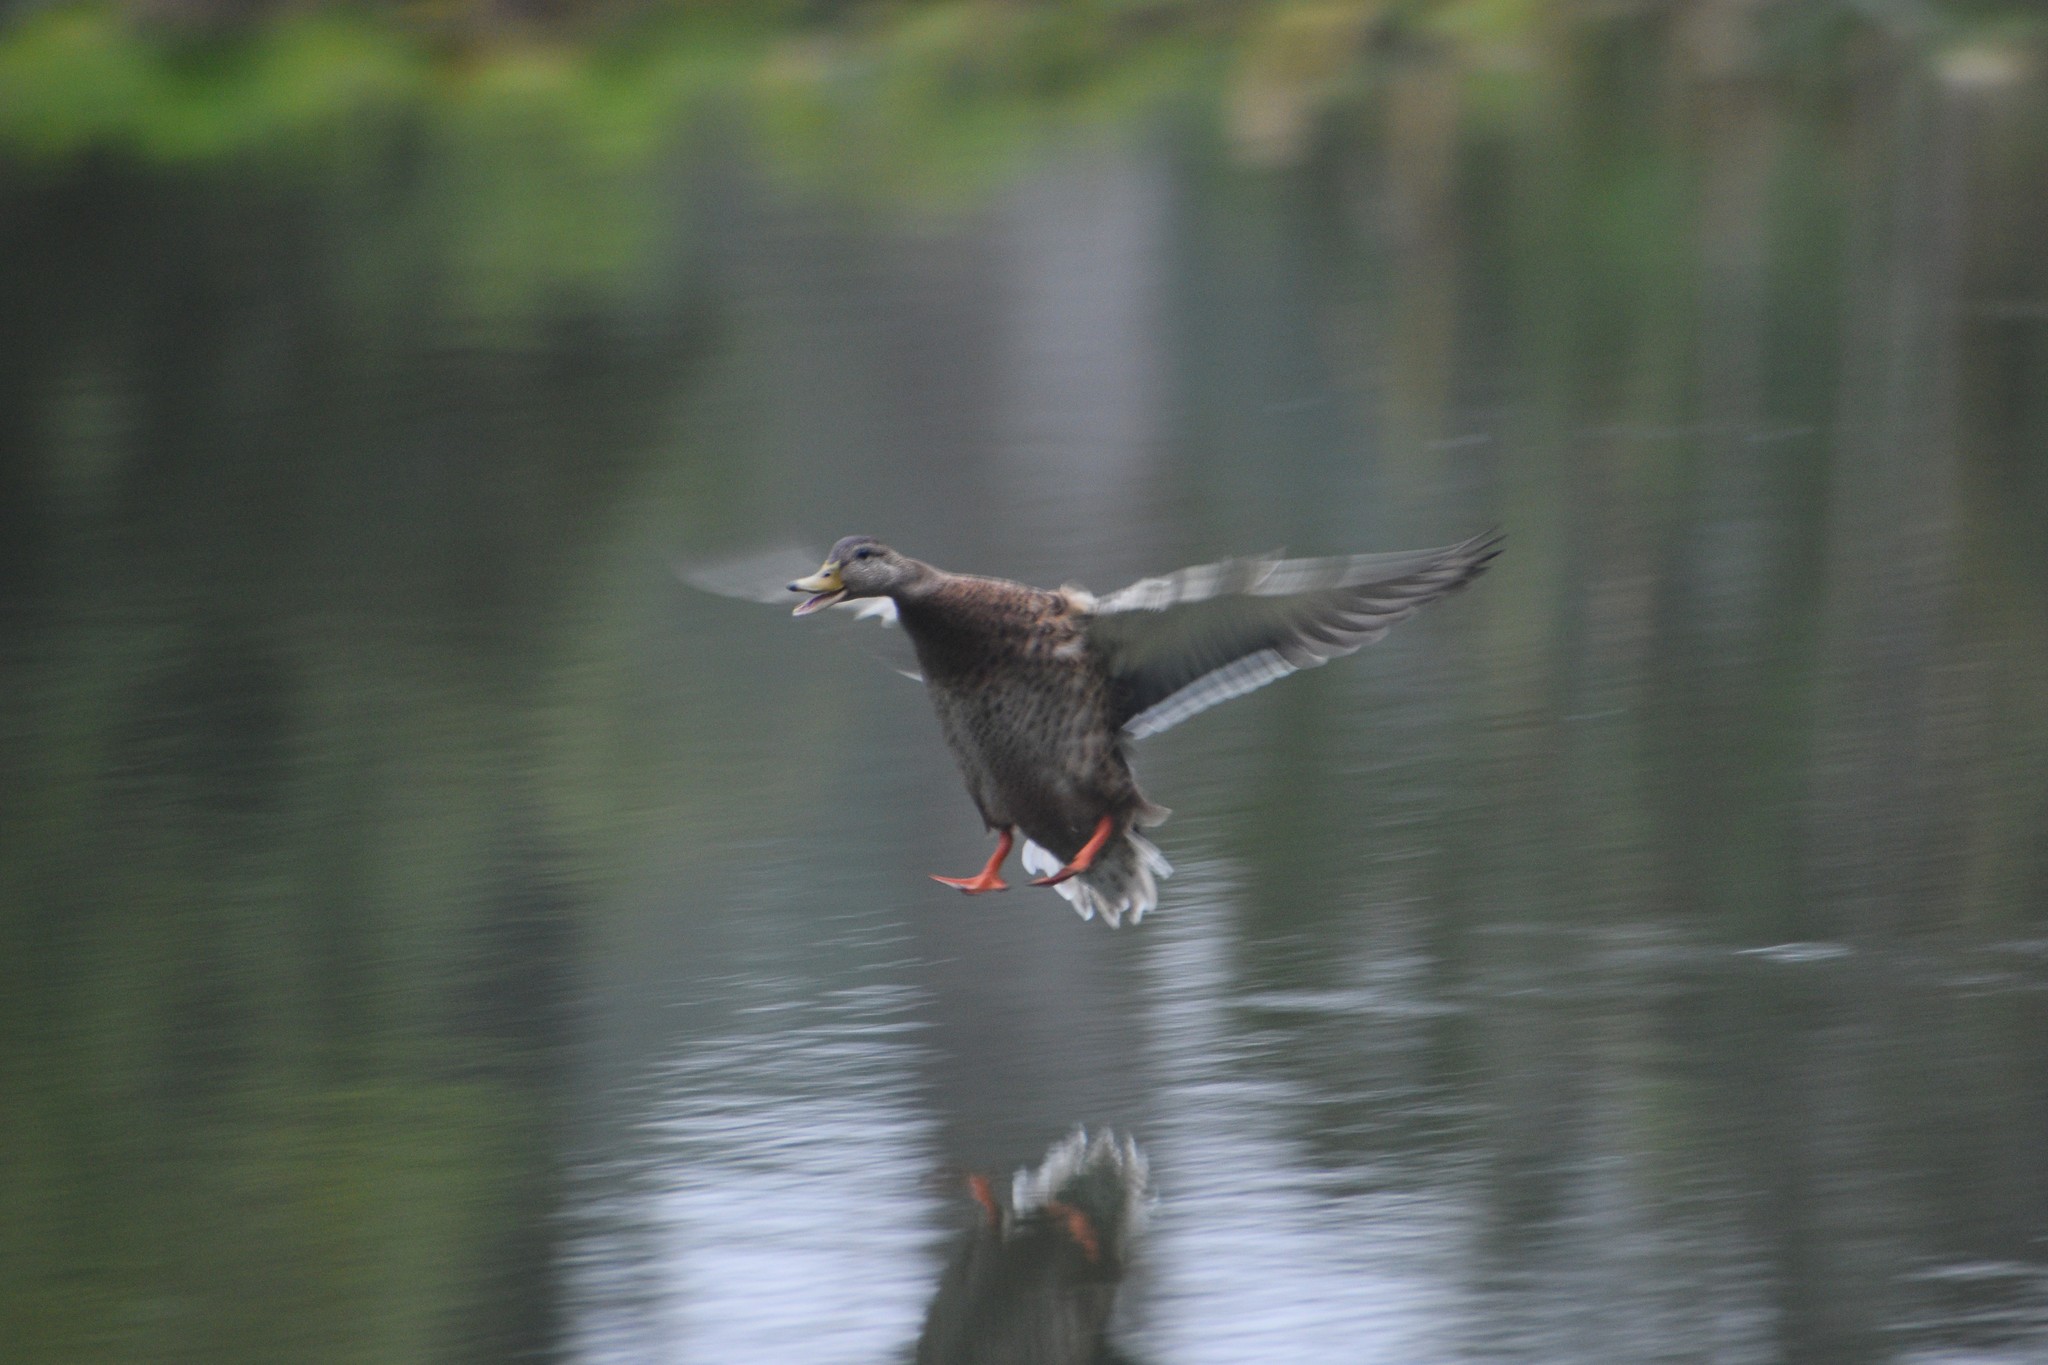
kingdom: Animalia
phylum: Chordata
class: Aves
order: Anseriformes
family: Anatidae
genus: Anas
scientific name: Anas platyrhynchos
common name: Mallard
